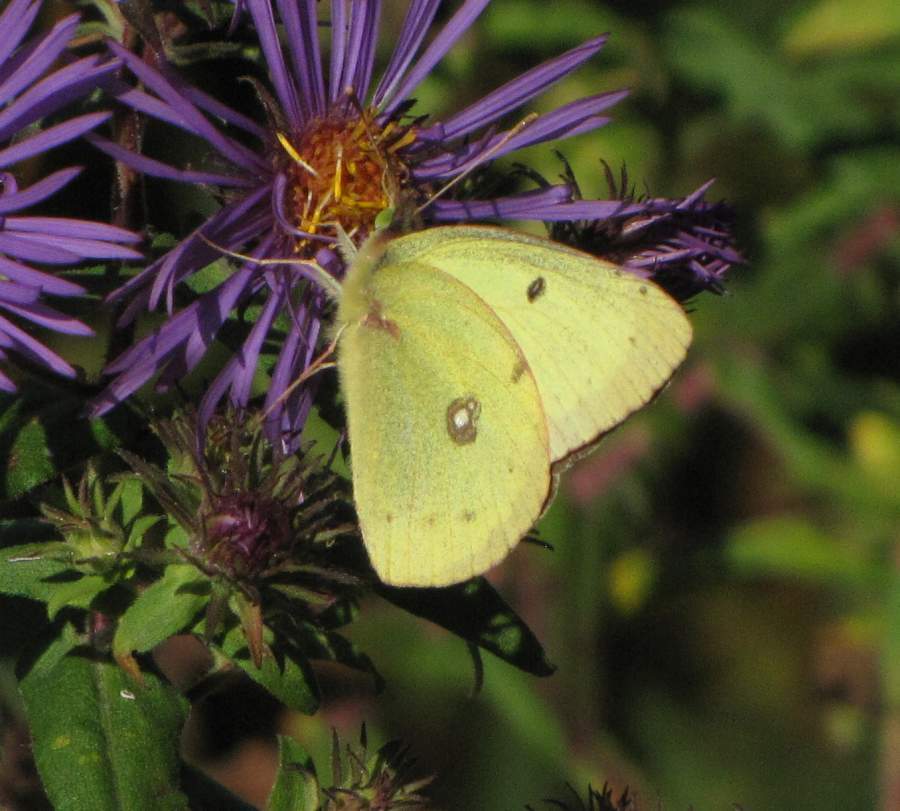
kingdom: Animalia
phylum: Arthropoda
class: Insecta
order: Lepidoptera
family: Pieridae
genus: Colias
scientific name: Colias philodice
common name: Clouded sulphur
